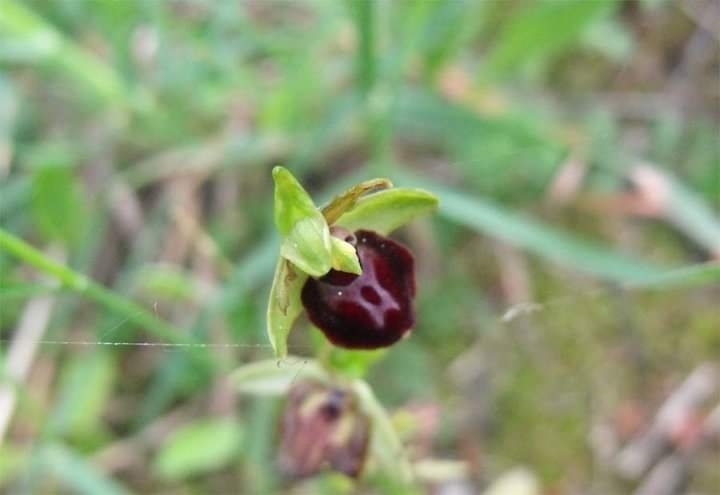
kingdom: Plantae
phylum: Tracheophyta
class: Liliopsida
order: Asparagales
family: Orchidaceae
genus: Ophrys
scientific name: Ophrys sphegodes
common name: Early spider-orchid
